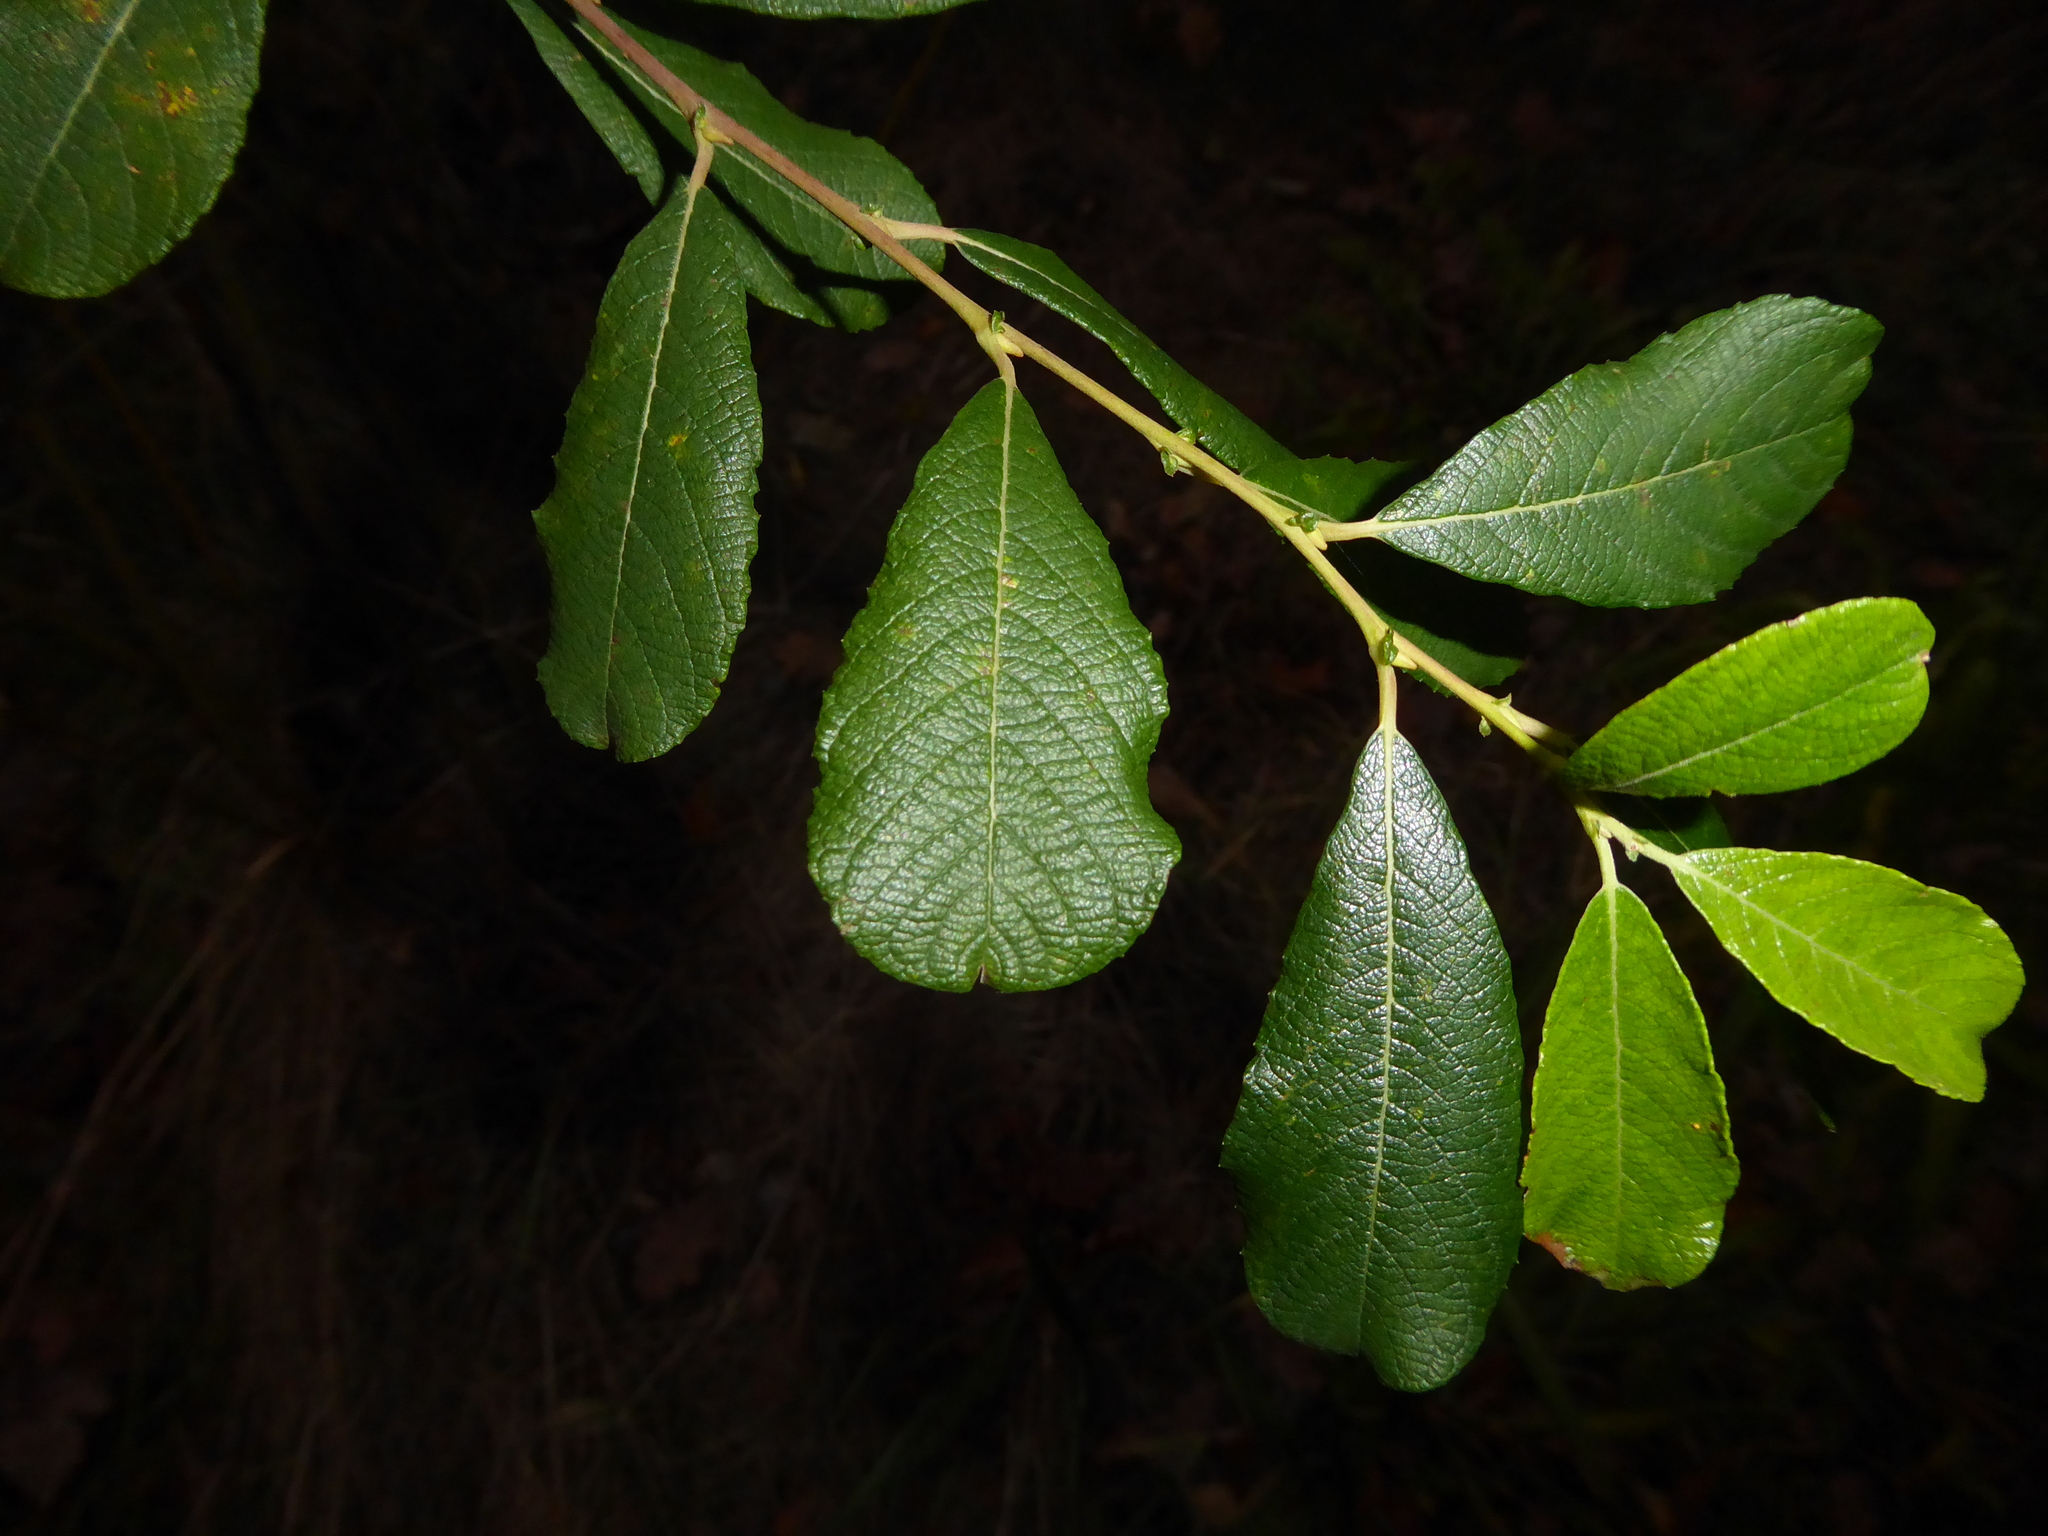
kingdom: Plantae
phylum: Tracheophyta
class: Magnoliopsida
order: Malpighiales
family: Salicaceae
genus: Salix
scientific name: Salix atrocinerea
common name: Rusty willow
